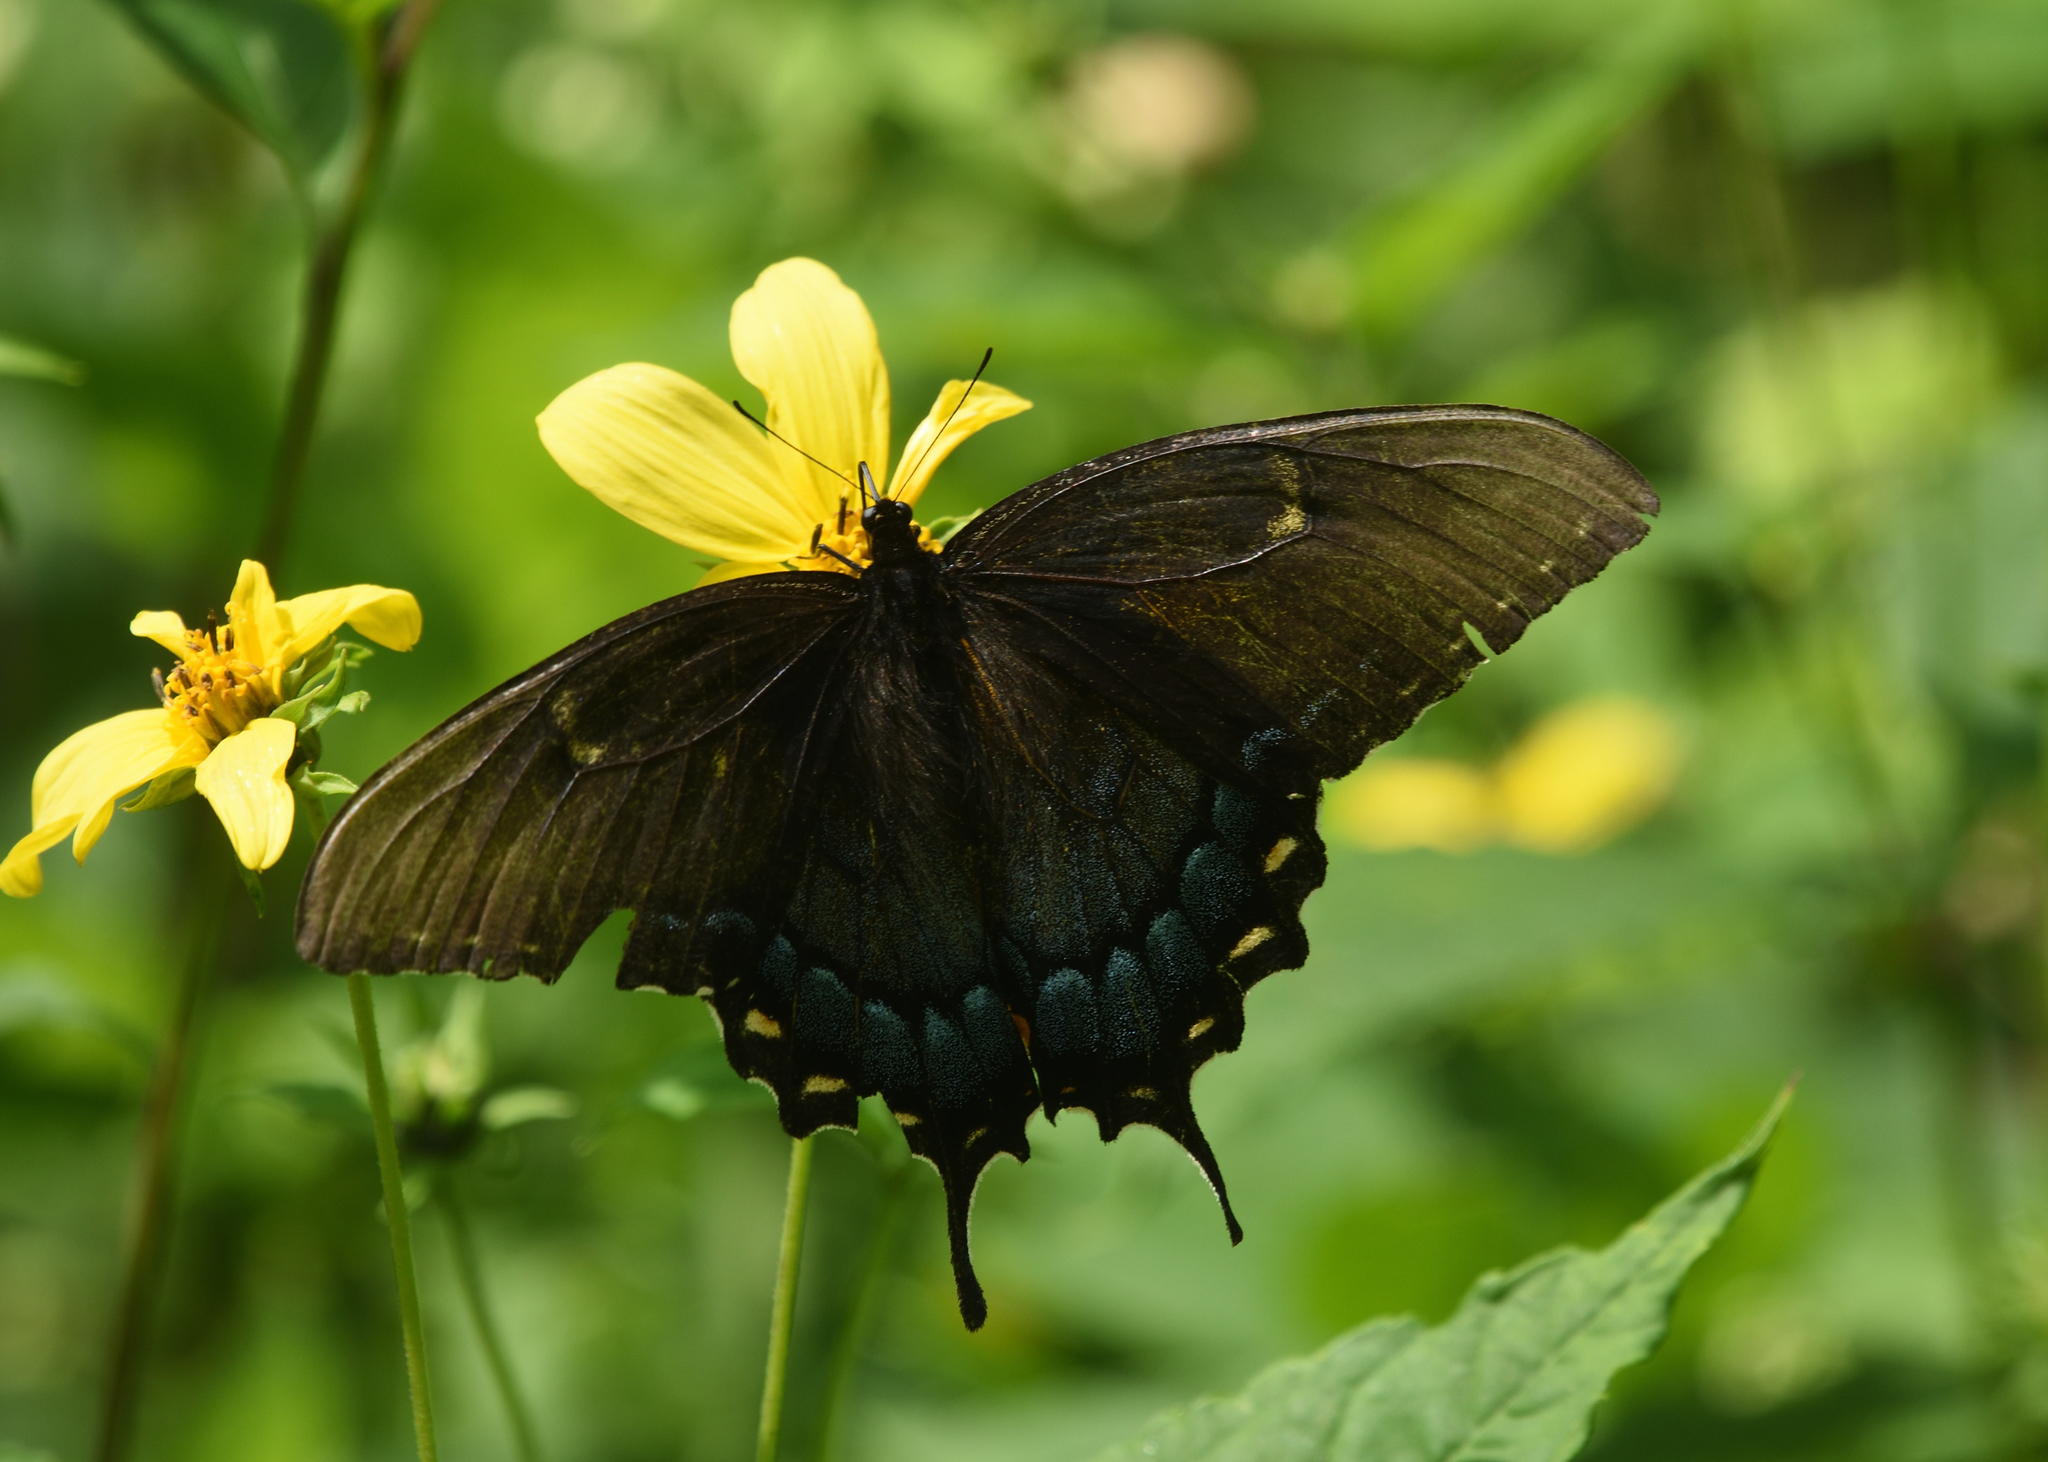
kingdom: Animalia
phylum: Arthropoda
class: Insecta
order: Lepidoptera
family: Papilionidae
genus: Papilio
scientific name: Papilio glaucus
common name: Tiger swallowtail
